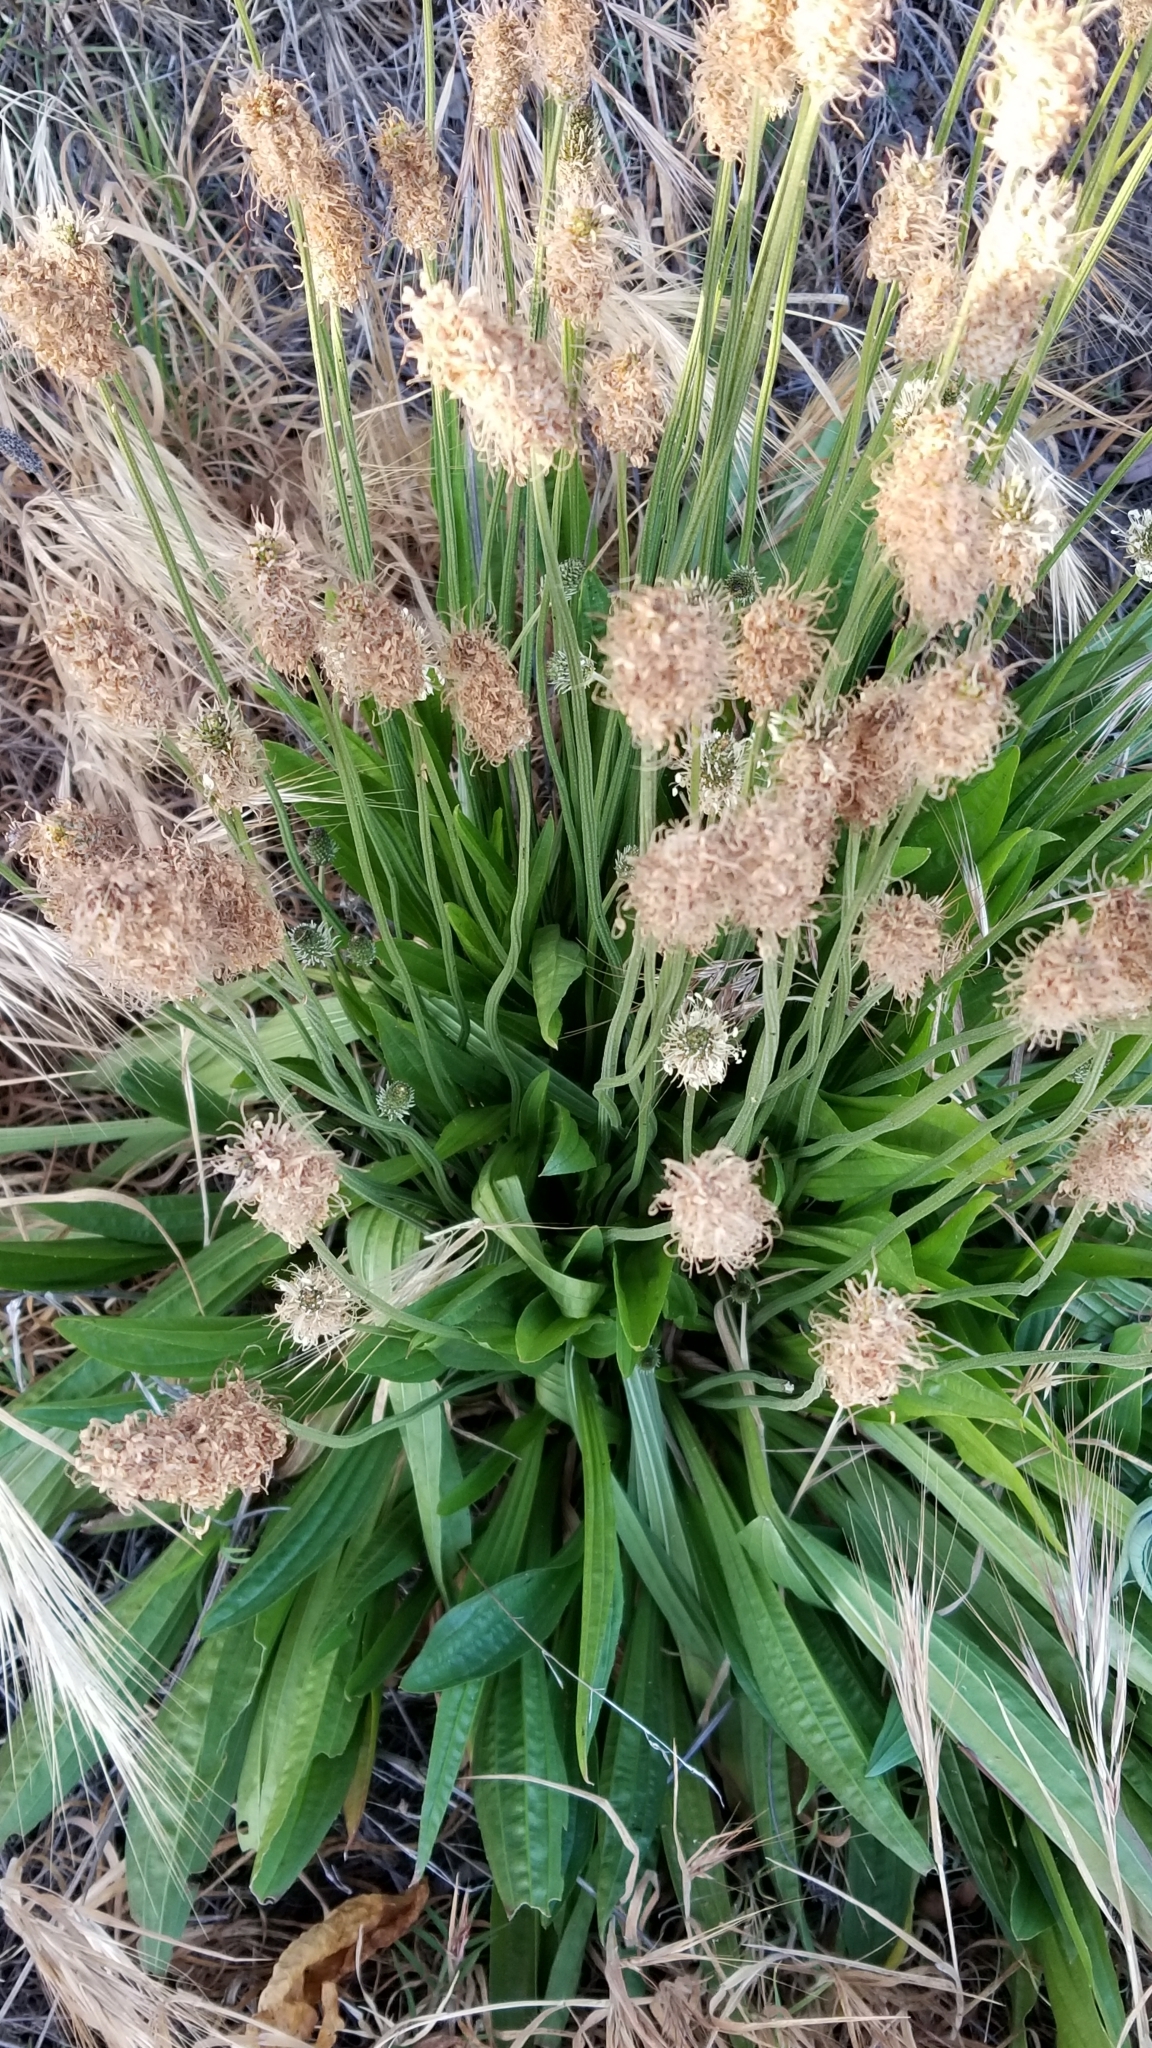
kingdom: Plantae
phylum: Tracheophyta
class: Magnoliopsida
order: Lamiales
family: Plantaginaceae
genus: Plantago
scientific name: Plantago lanceolata
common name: Ribwort plantain
